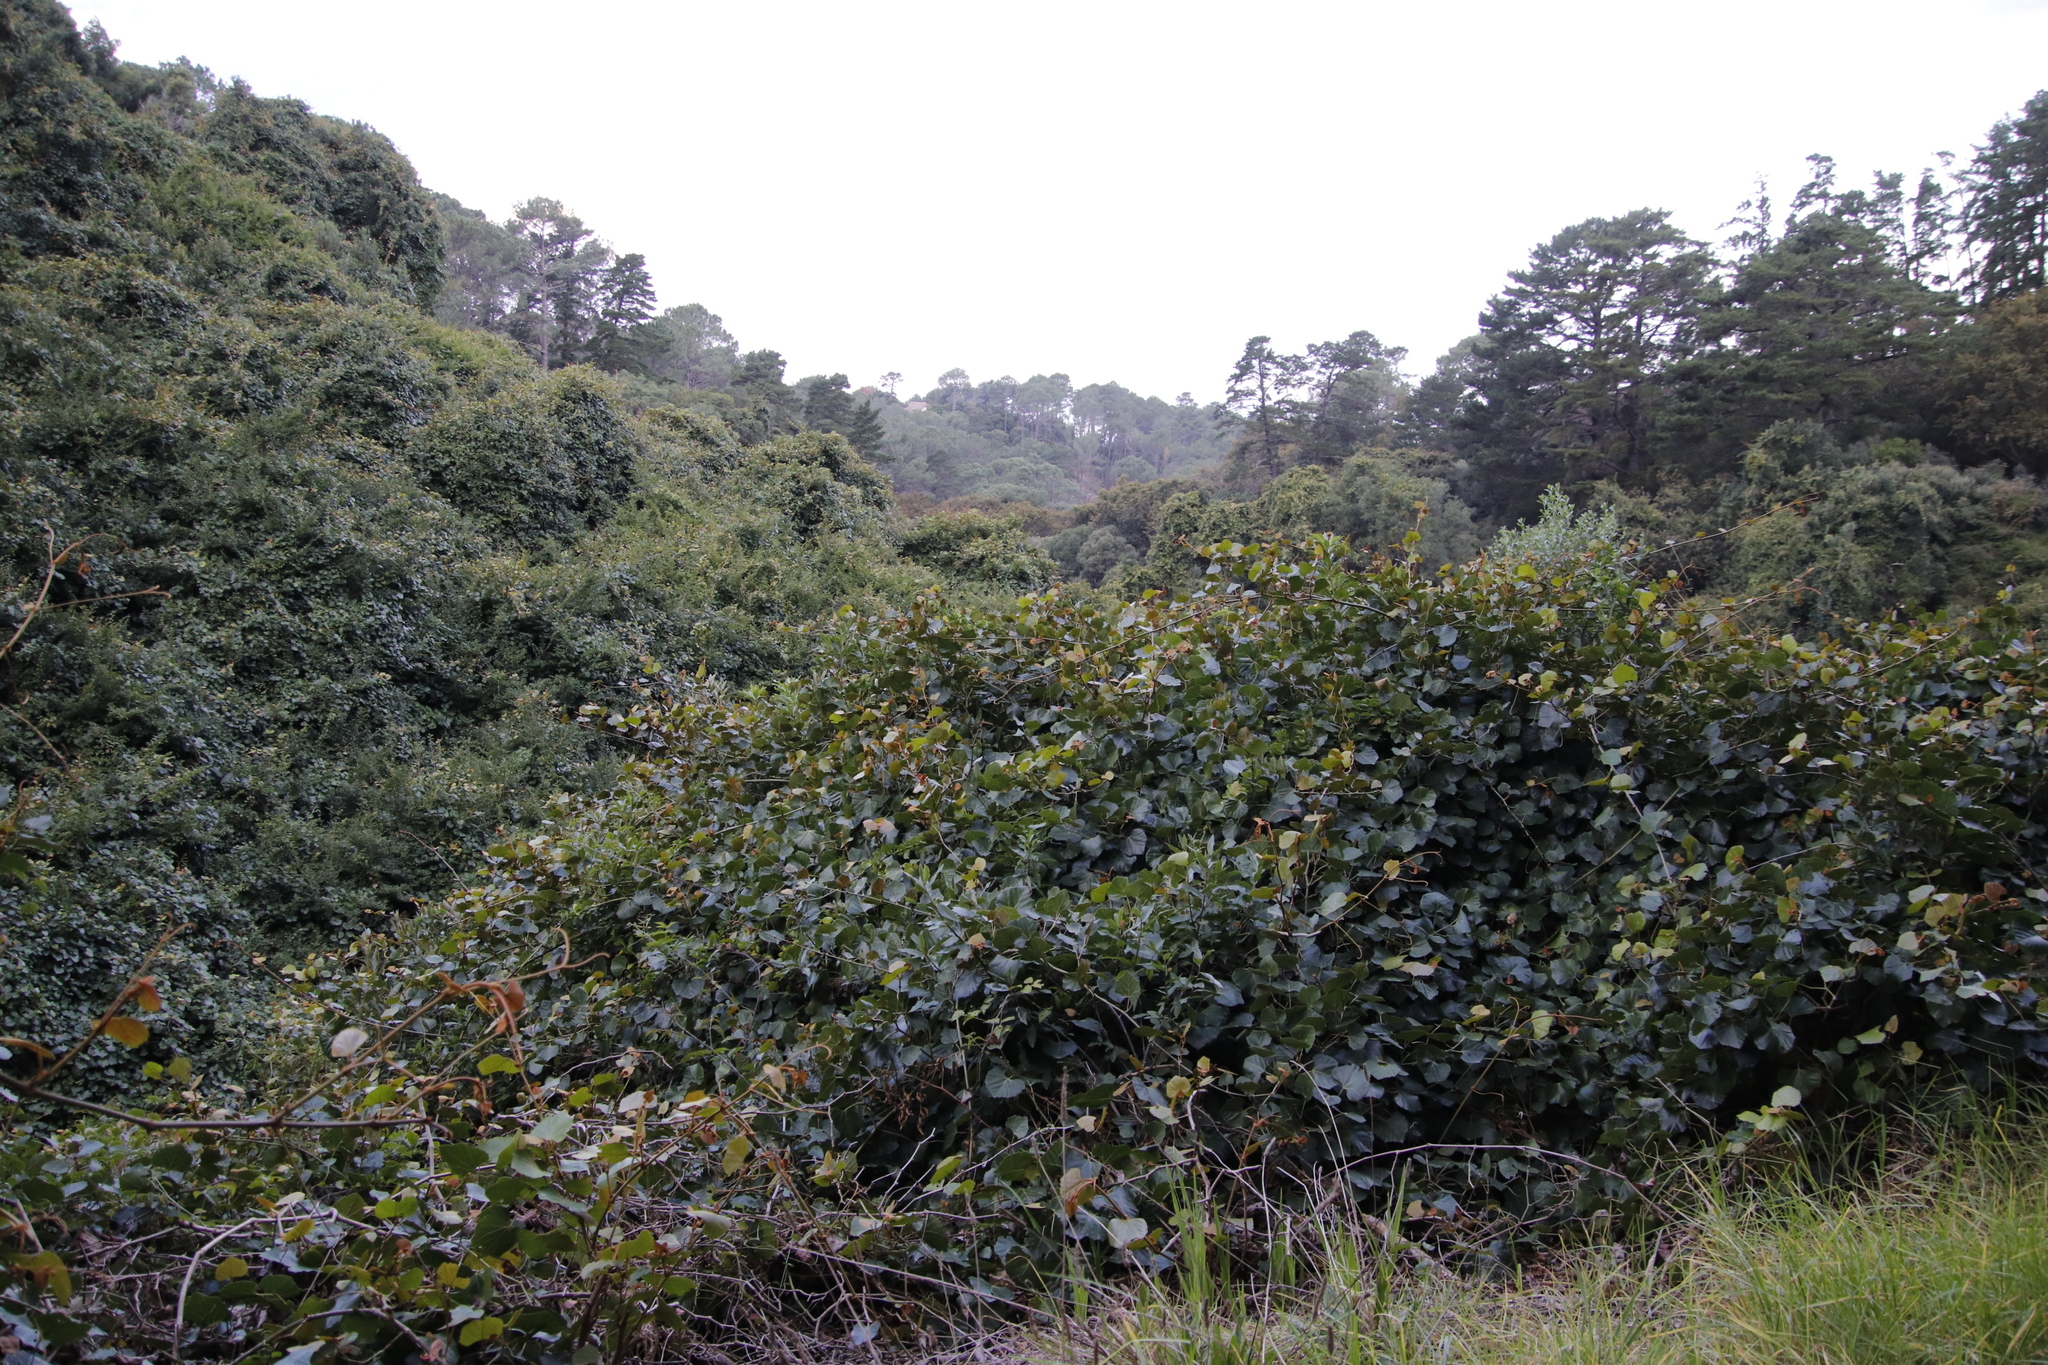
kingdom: Plantae
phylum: Tracheophyta
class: Magnoliopsida
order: Vitales
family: Vitaceae
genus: Rhoicissus
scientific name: Rhoicissus tomentosa
